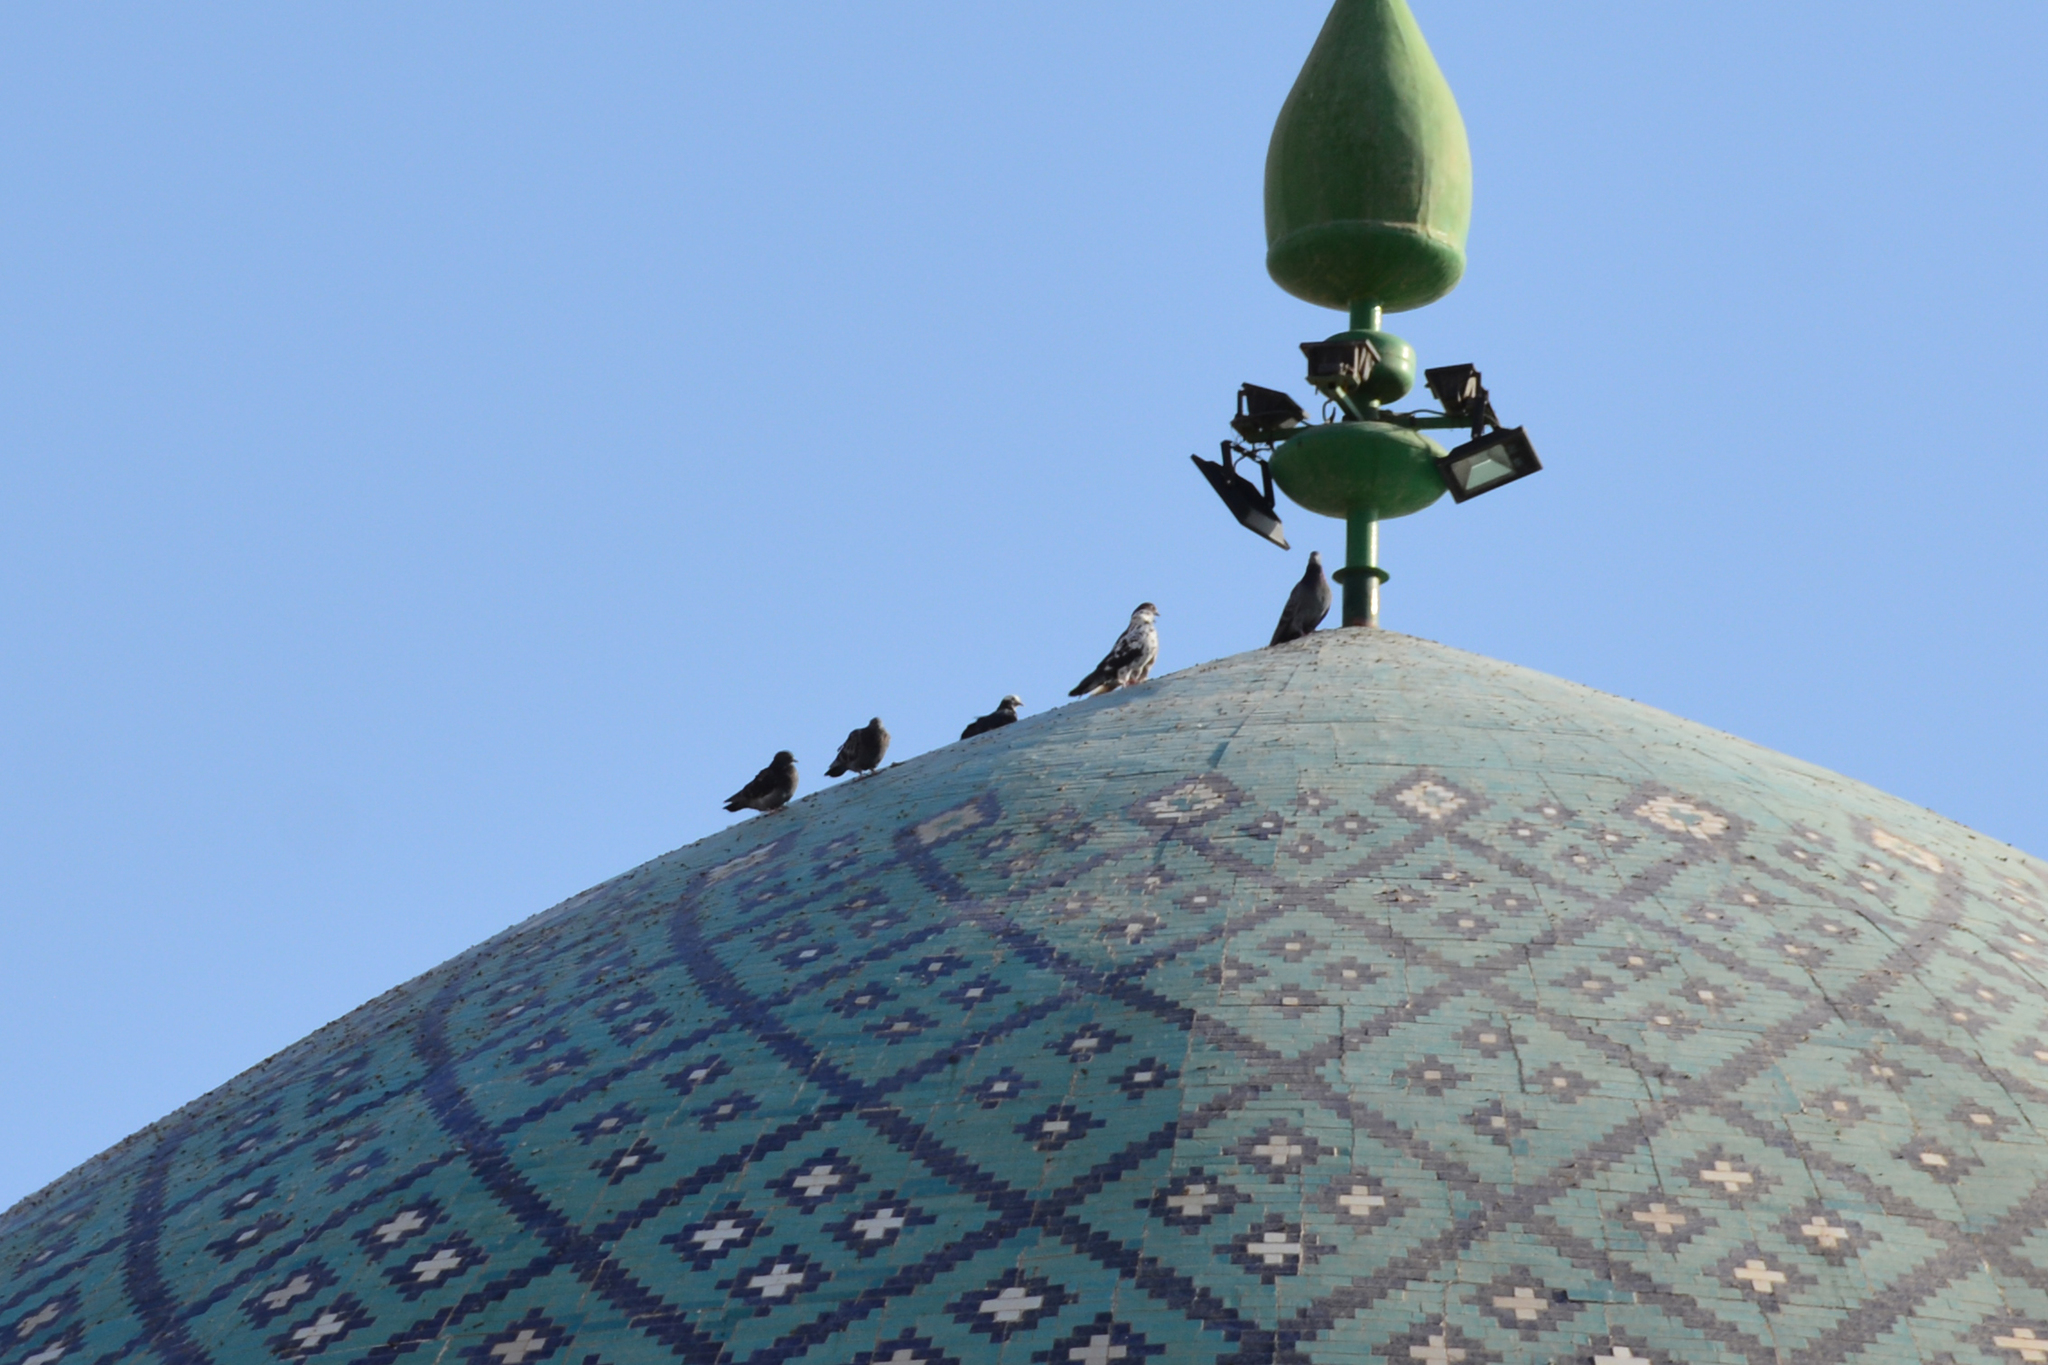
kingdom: Animalia
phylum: Chordata
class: Aves
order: Columbiformes
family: Columbidae
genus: Columba
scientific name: Columba livia
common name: Rock pigeon
